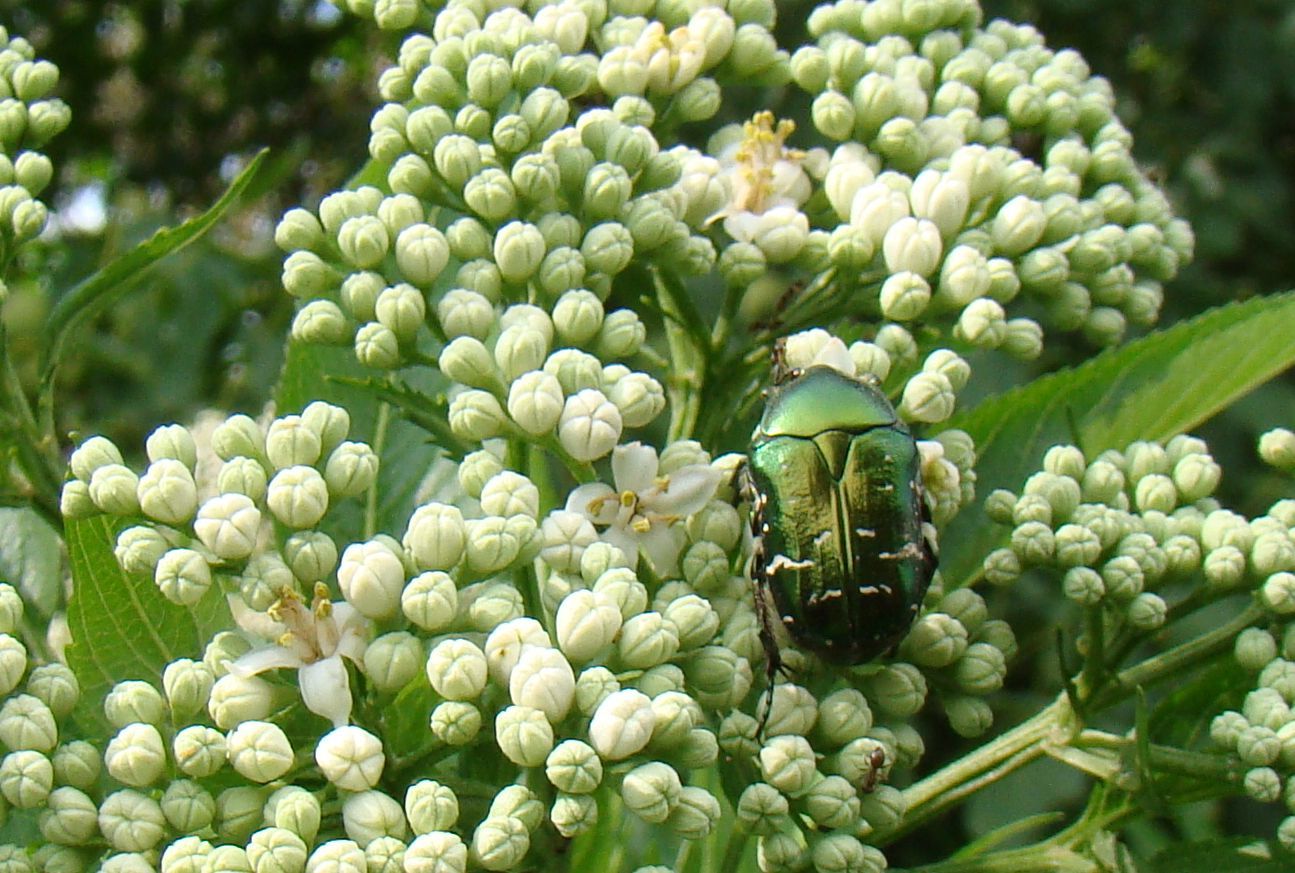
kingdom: Animalia
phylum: Arthropoda
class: Insecta
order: Coleoptera
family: Scarabaeidae
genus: Cetonia
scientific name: Cetonia aurata
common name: Rose chafer
